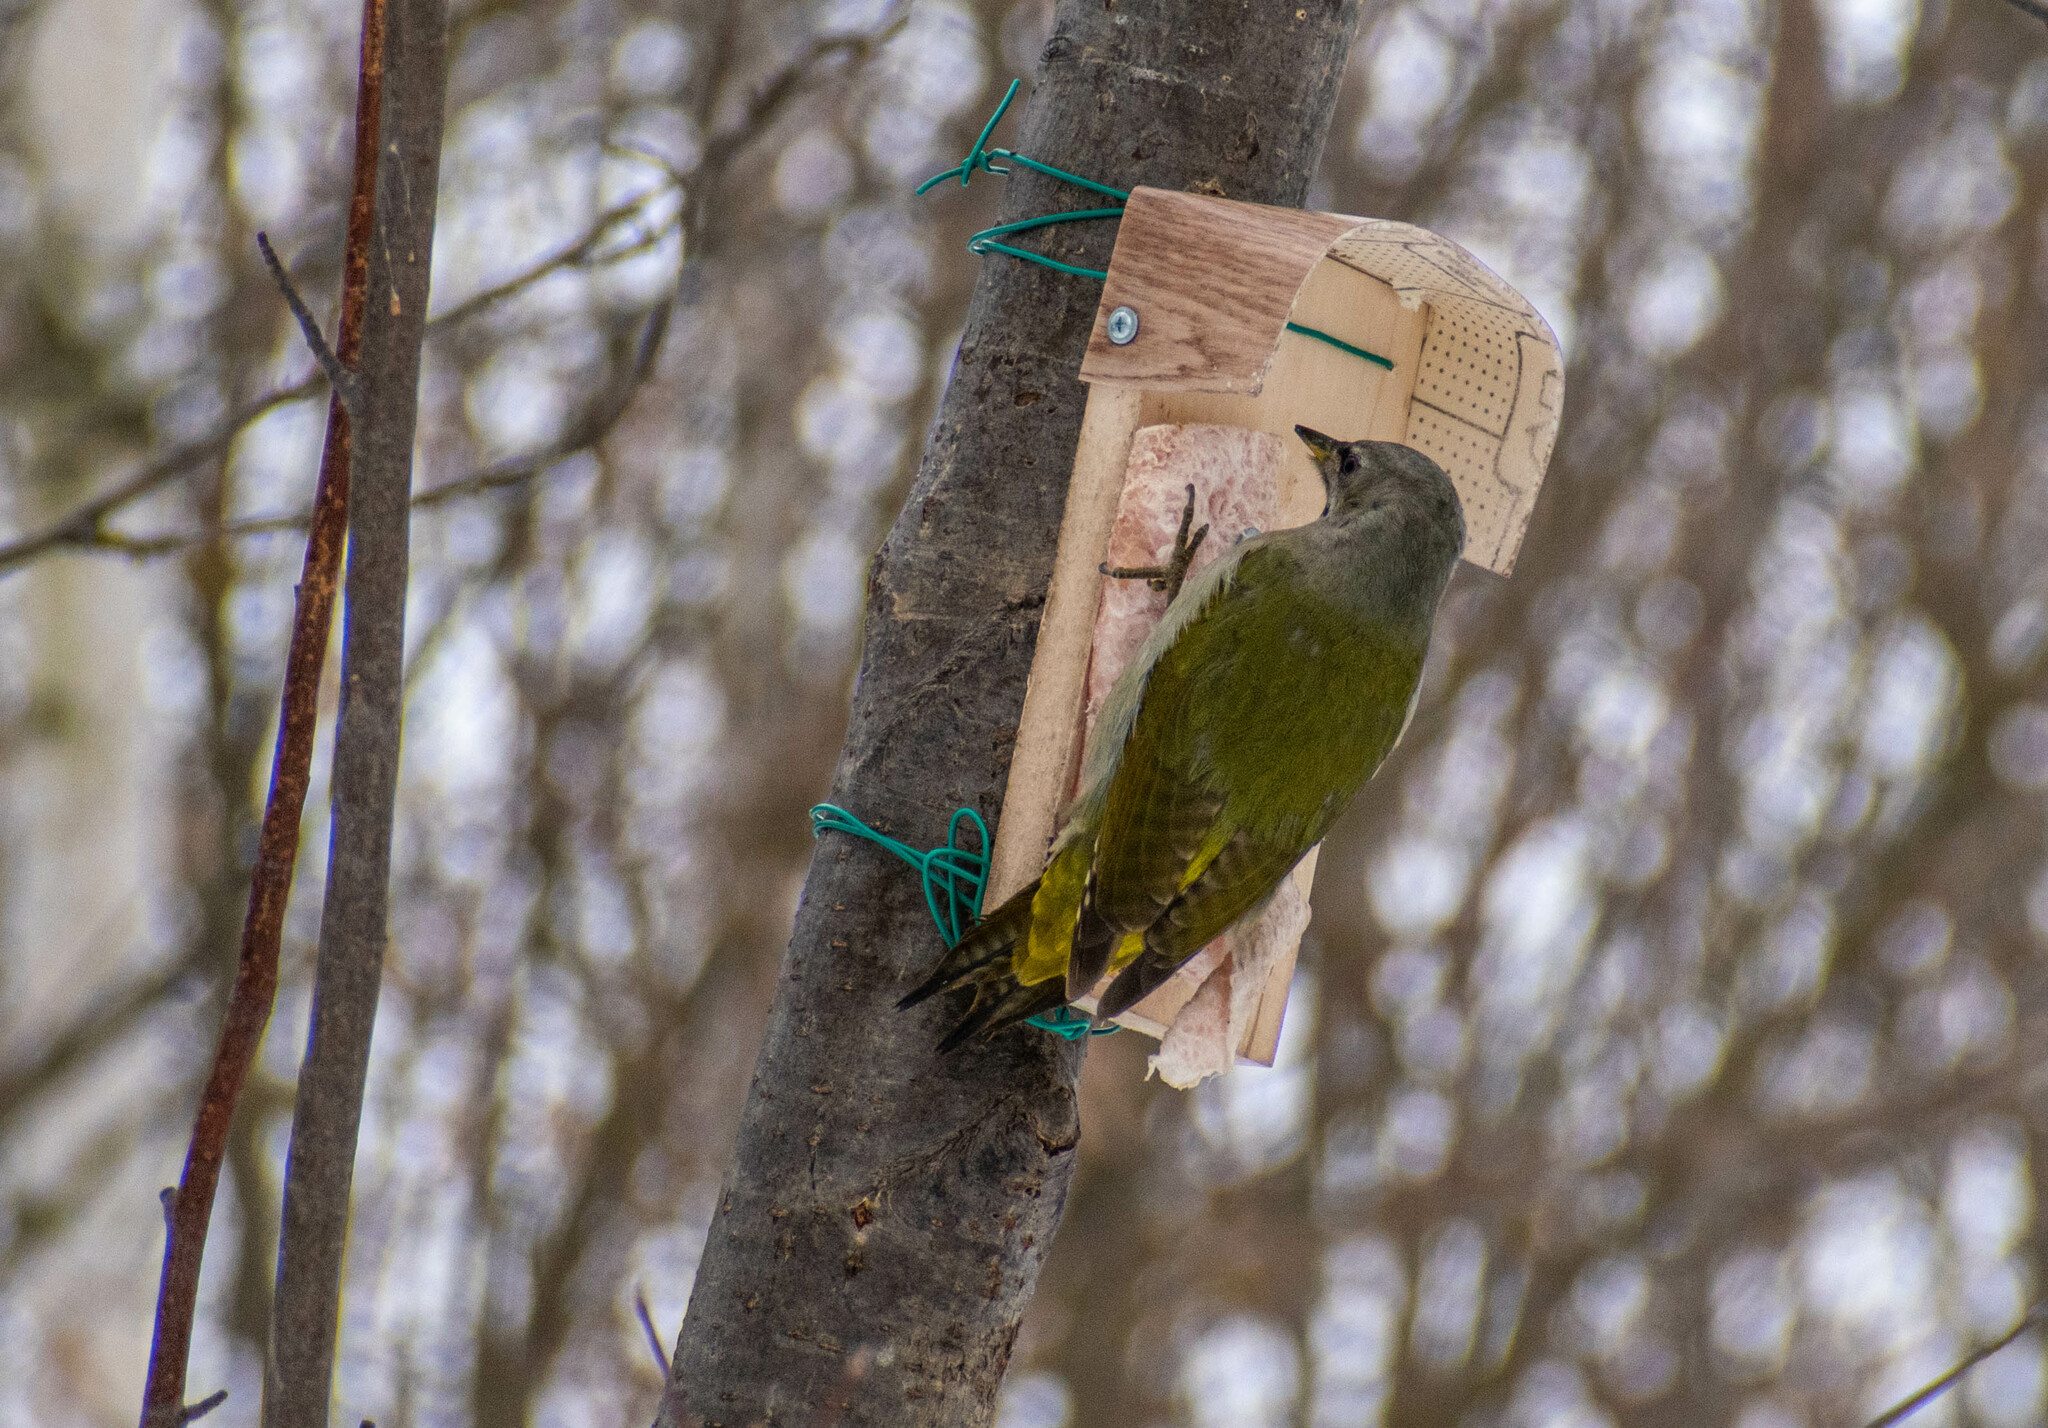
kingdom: Animalia
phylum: Chordata
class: Aves
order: Piciformes
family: Picidae
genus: Picus
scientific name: Picus canus
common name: Grey-headed woodpecker
